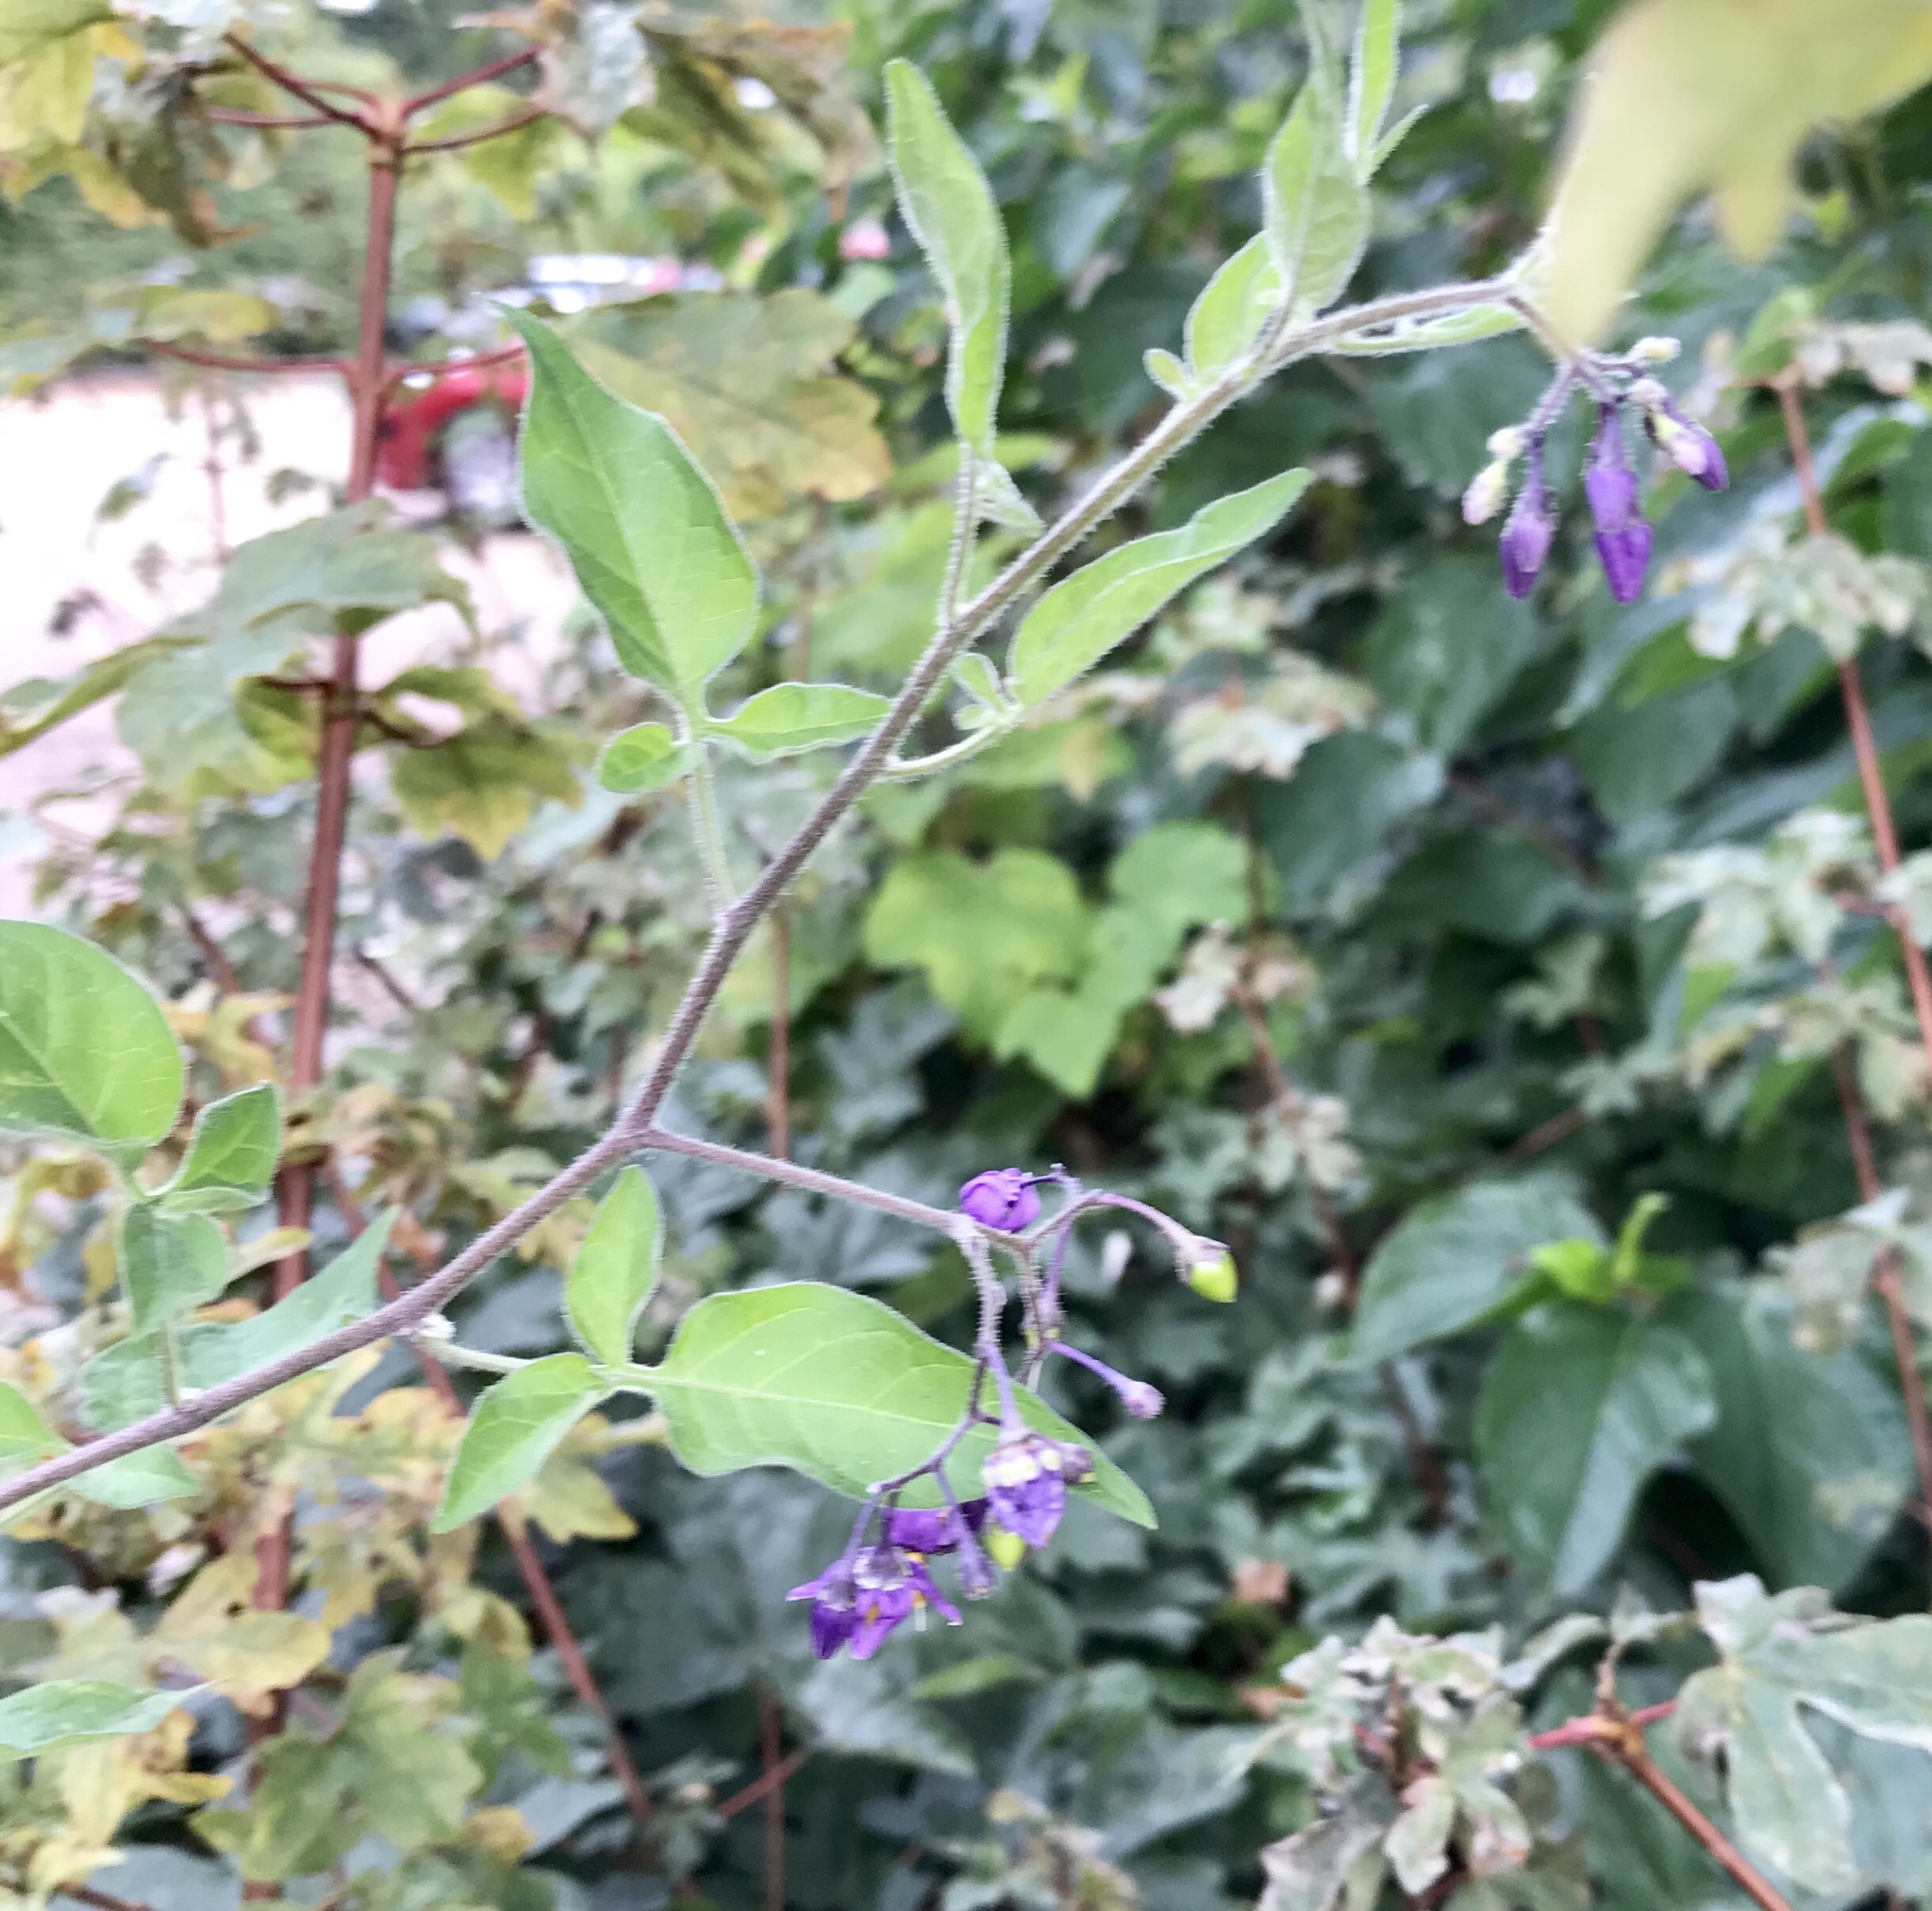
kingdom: Plantae
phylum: Tracheophyta
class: Magnoliopsida
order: Solanales
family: Solanaceae
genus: Solanum
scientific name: Solanum dulcamara
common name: Climbing nightshade
